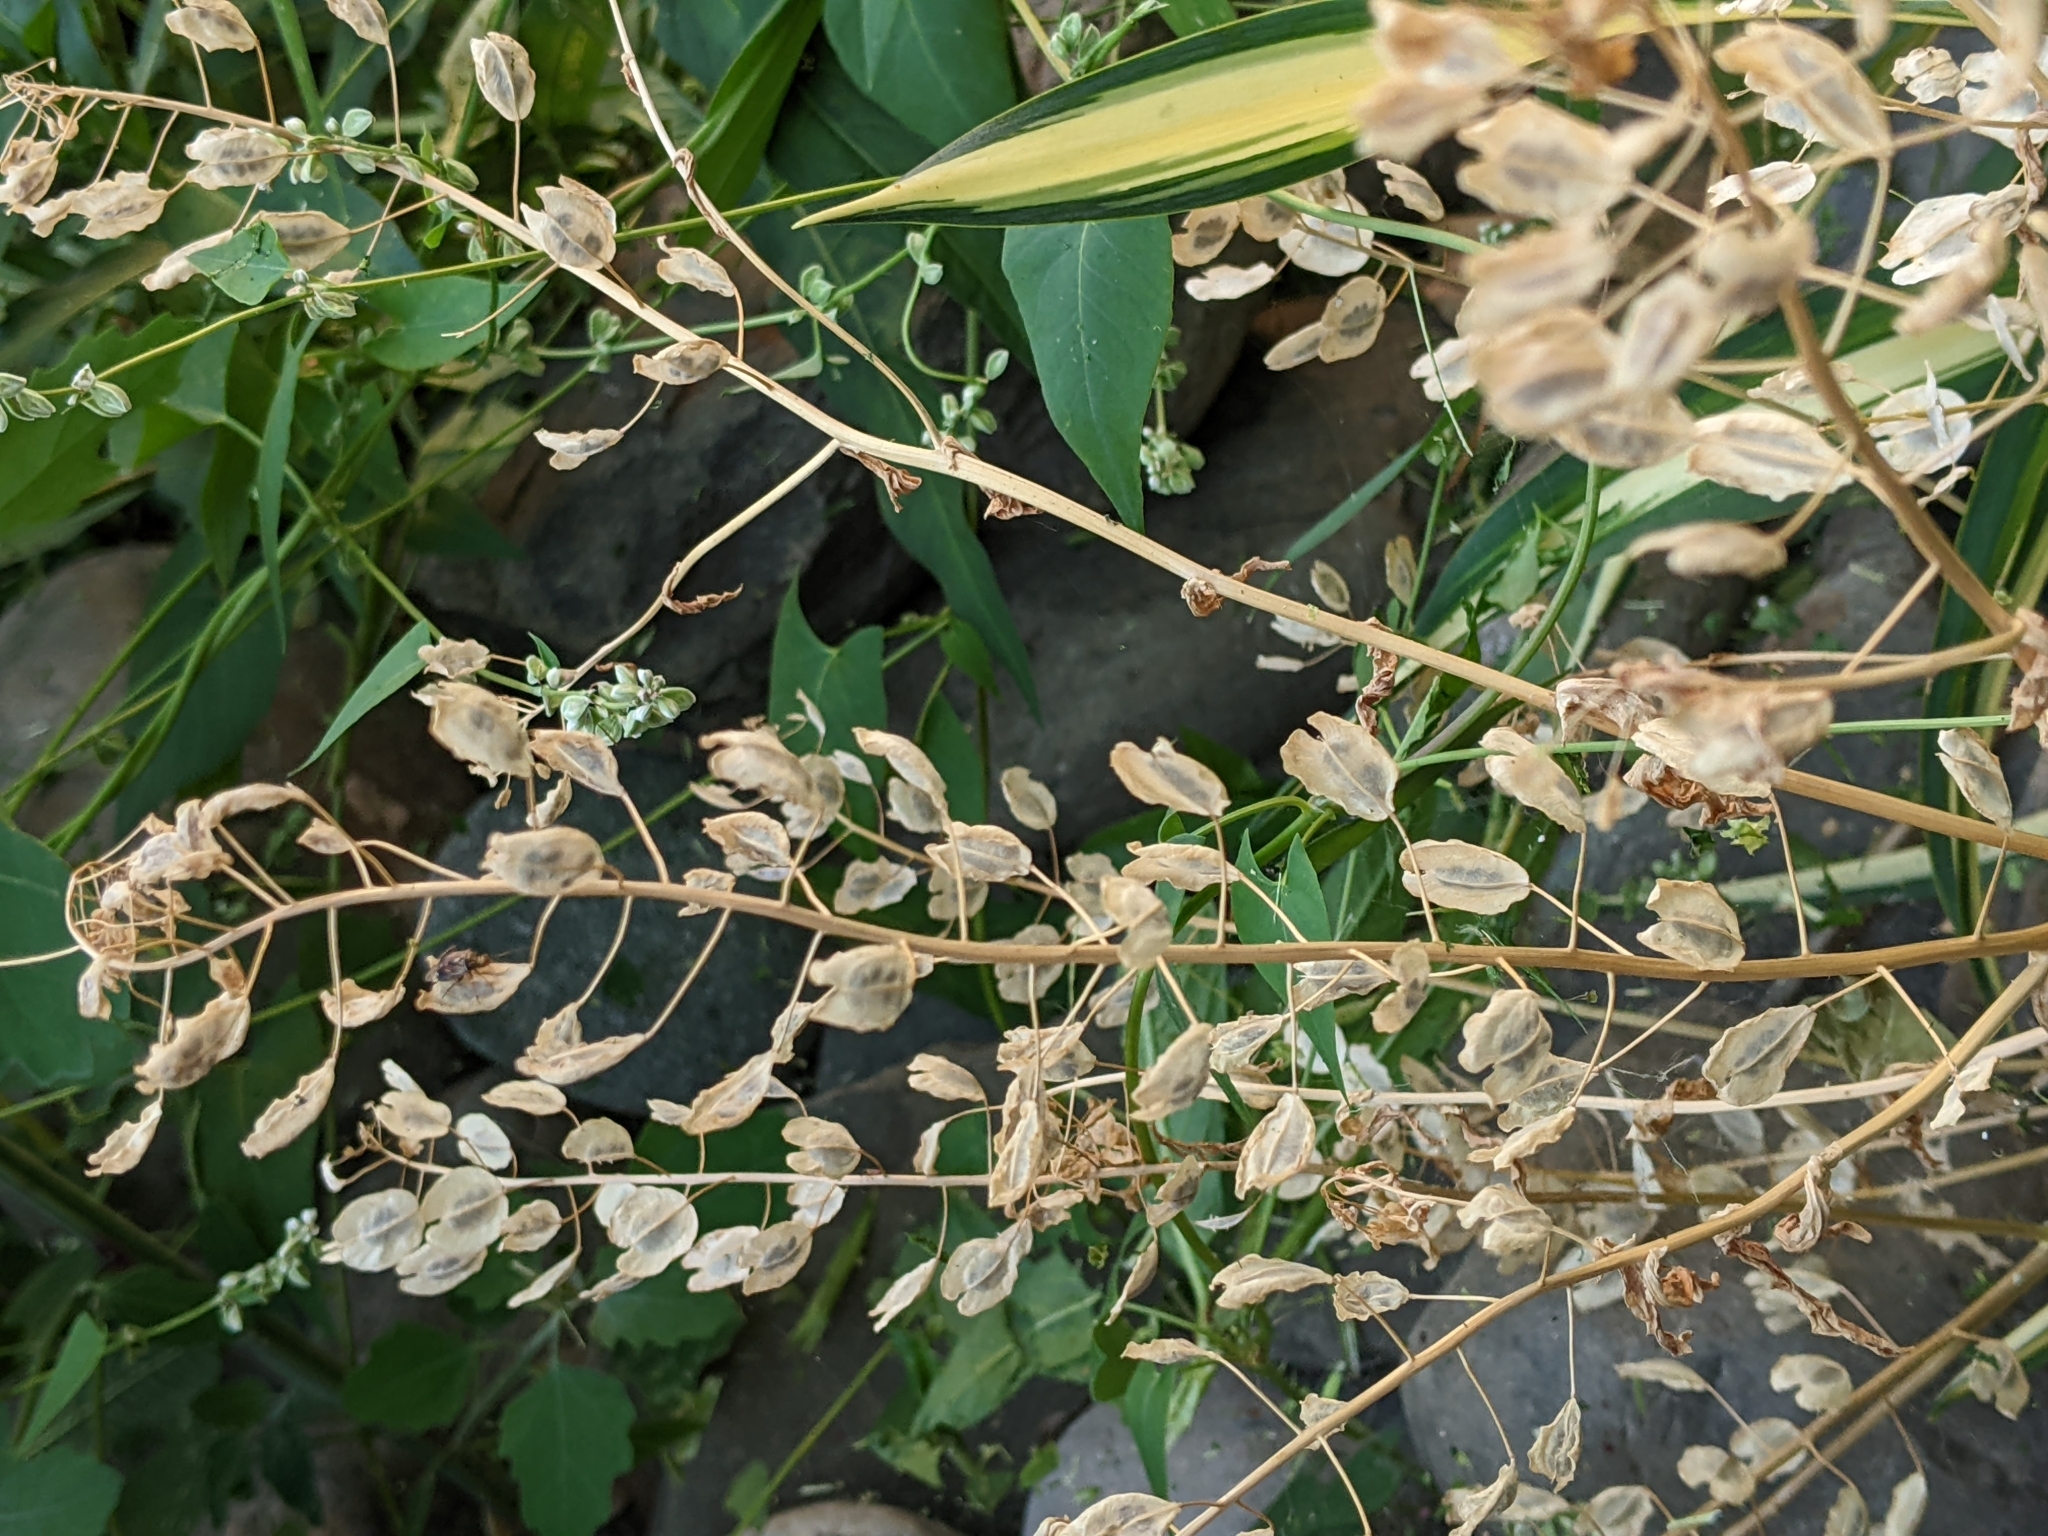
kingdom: Plantae
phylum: Tracheophyta
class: Magnoliopsida
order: Brassicales
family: Brassicaceae
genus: Thlaspi
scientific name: Thlaspi arvense
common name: Field pennycress
